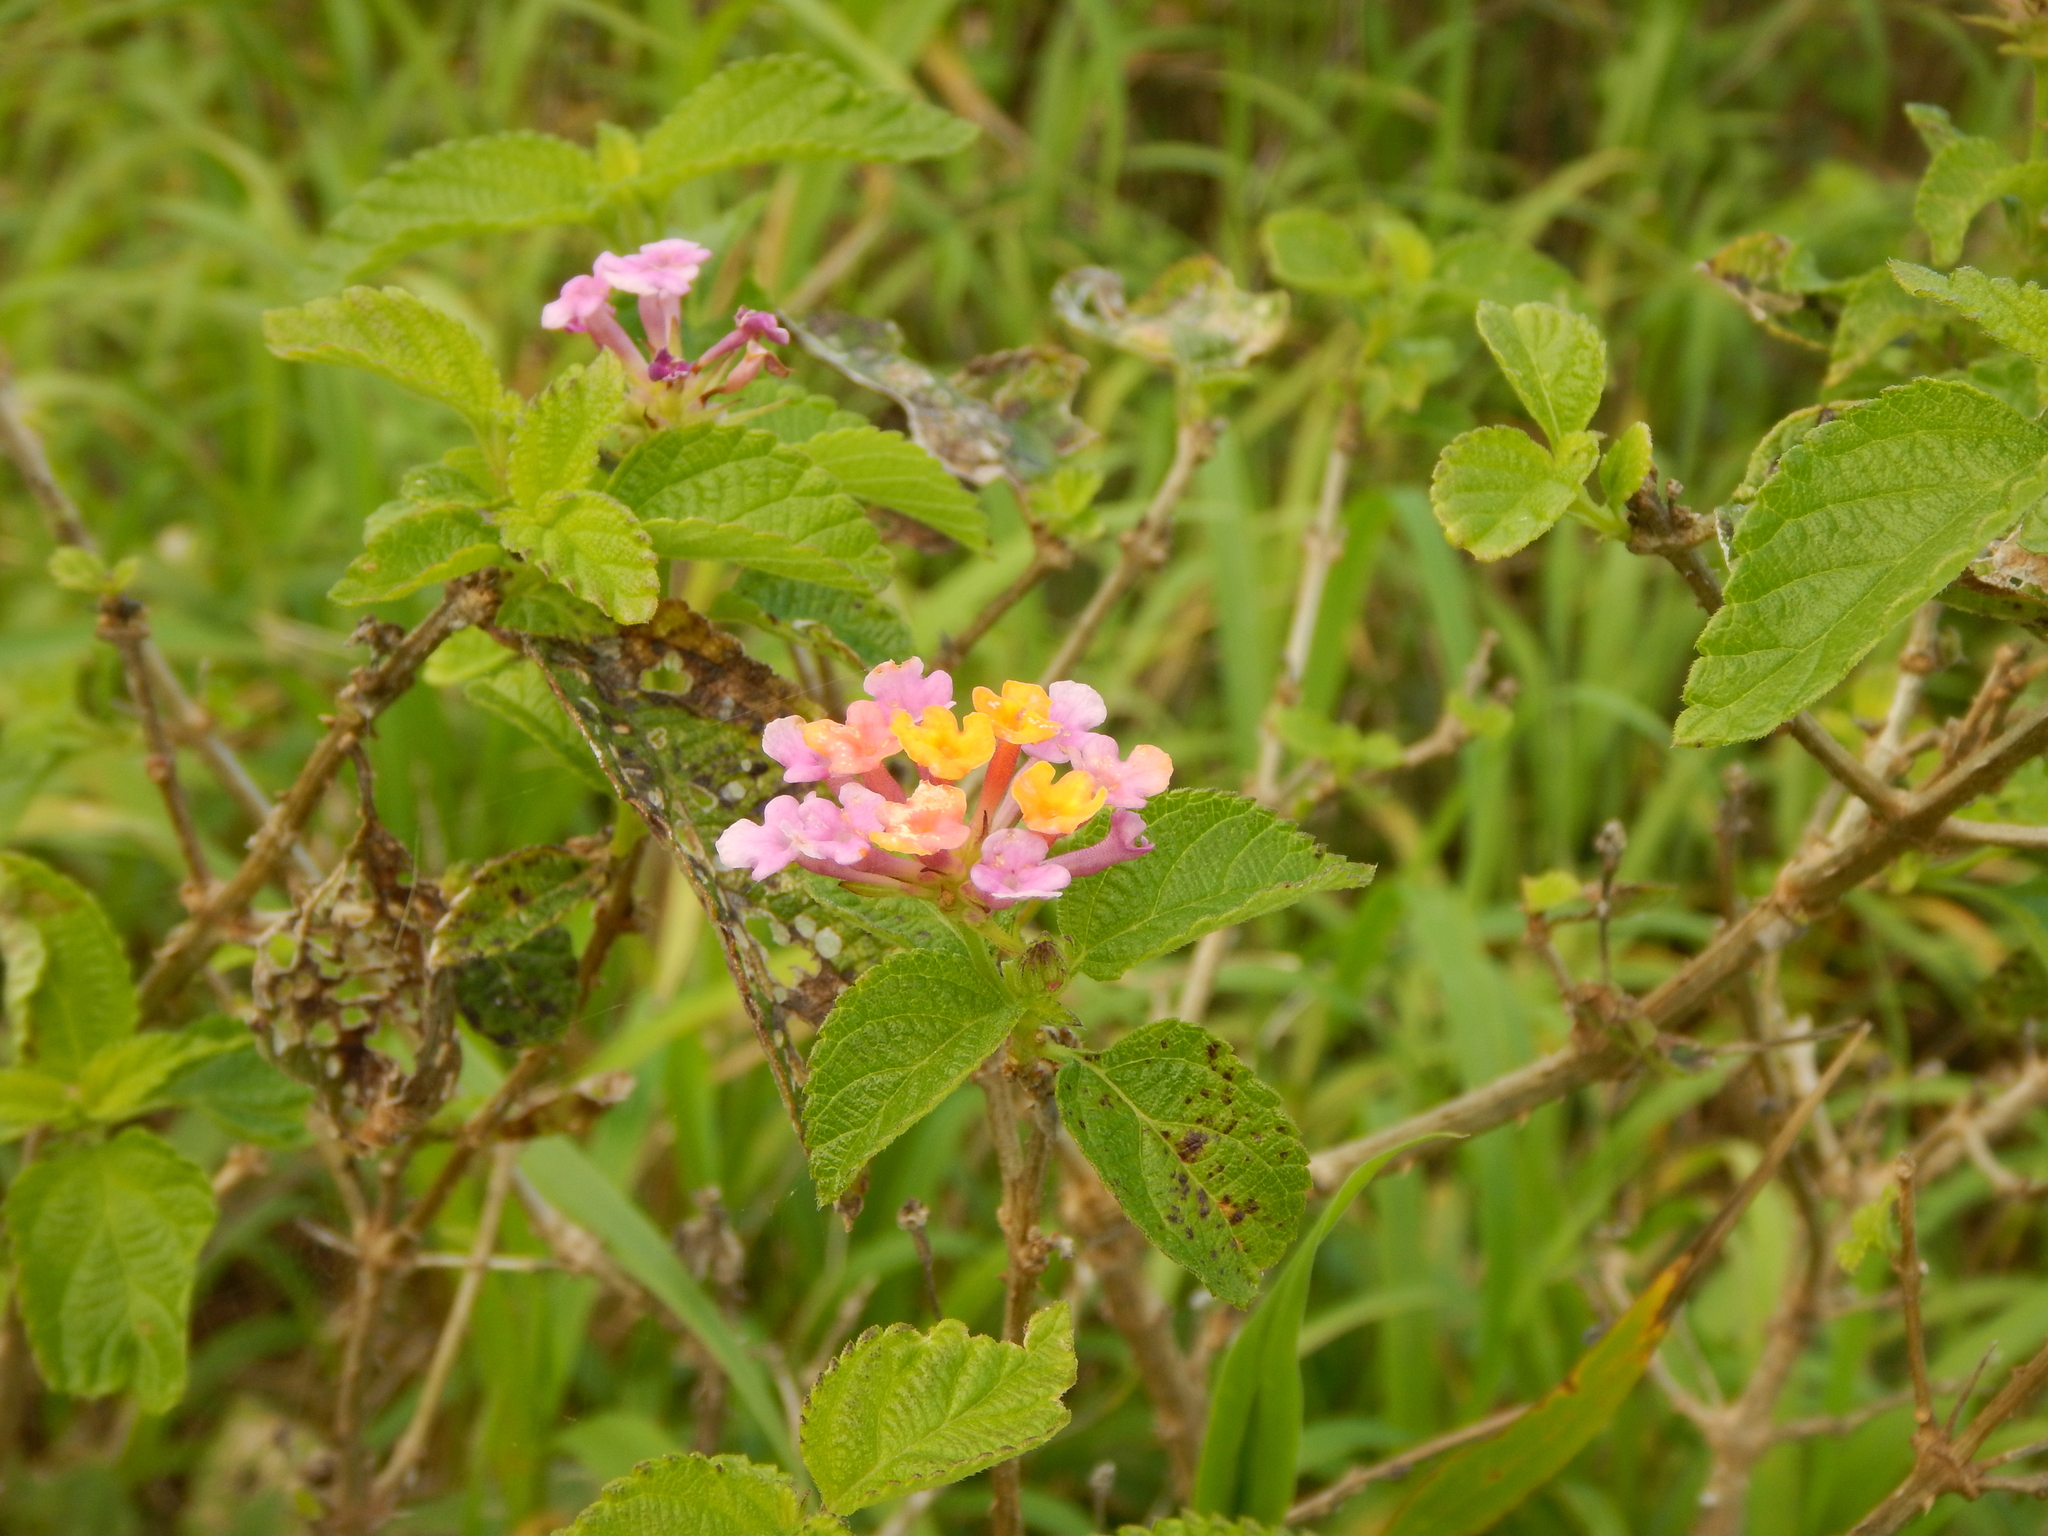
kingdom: Plantae
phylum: Tracheophyta
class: Magnoliopsida
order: Lamiales
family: Verbenaceae
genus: Lantana
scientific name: Lantana camara
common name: Lantana
